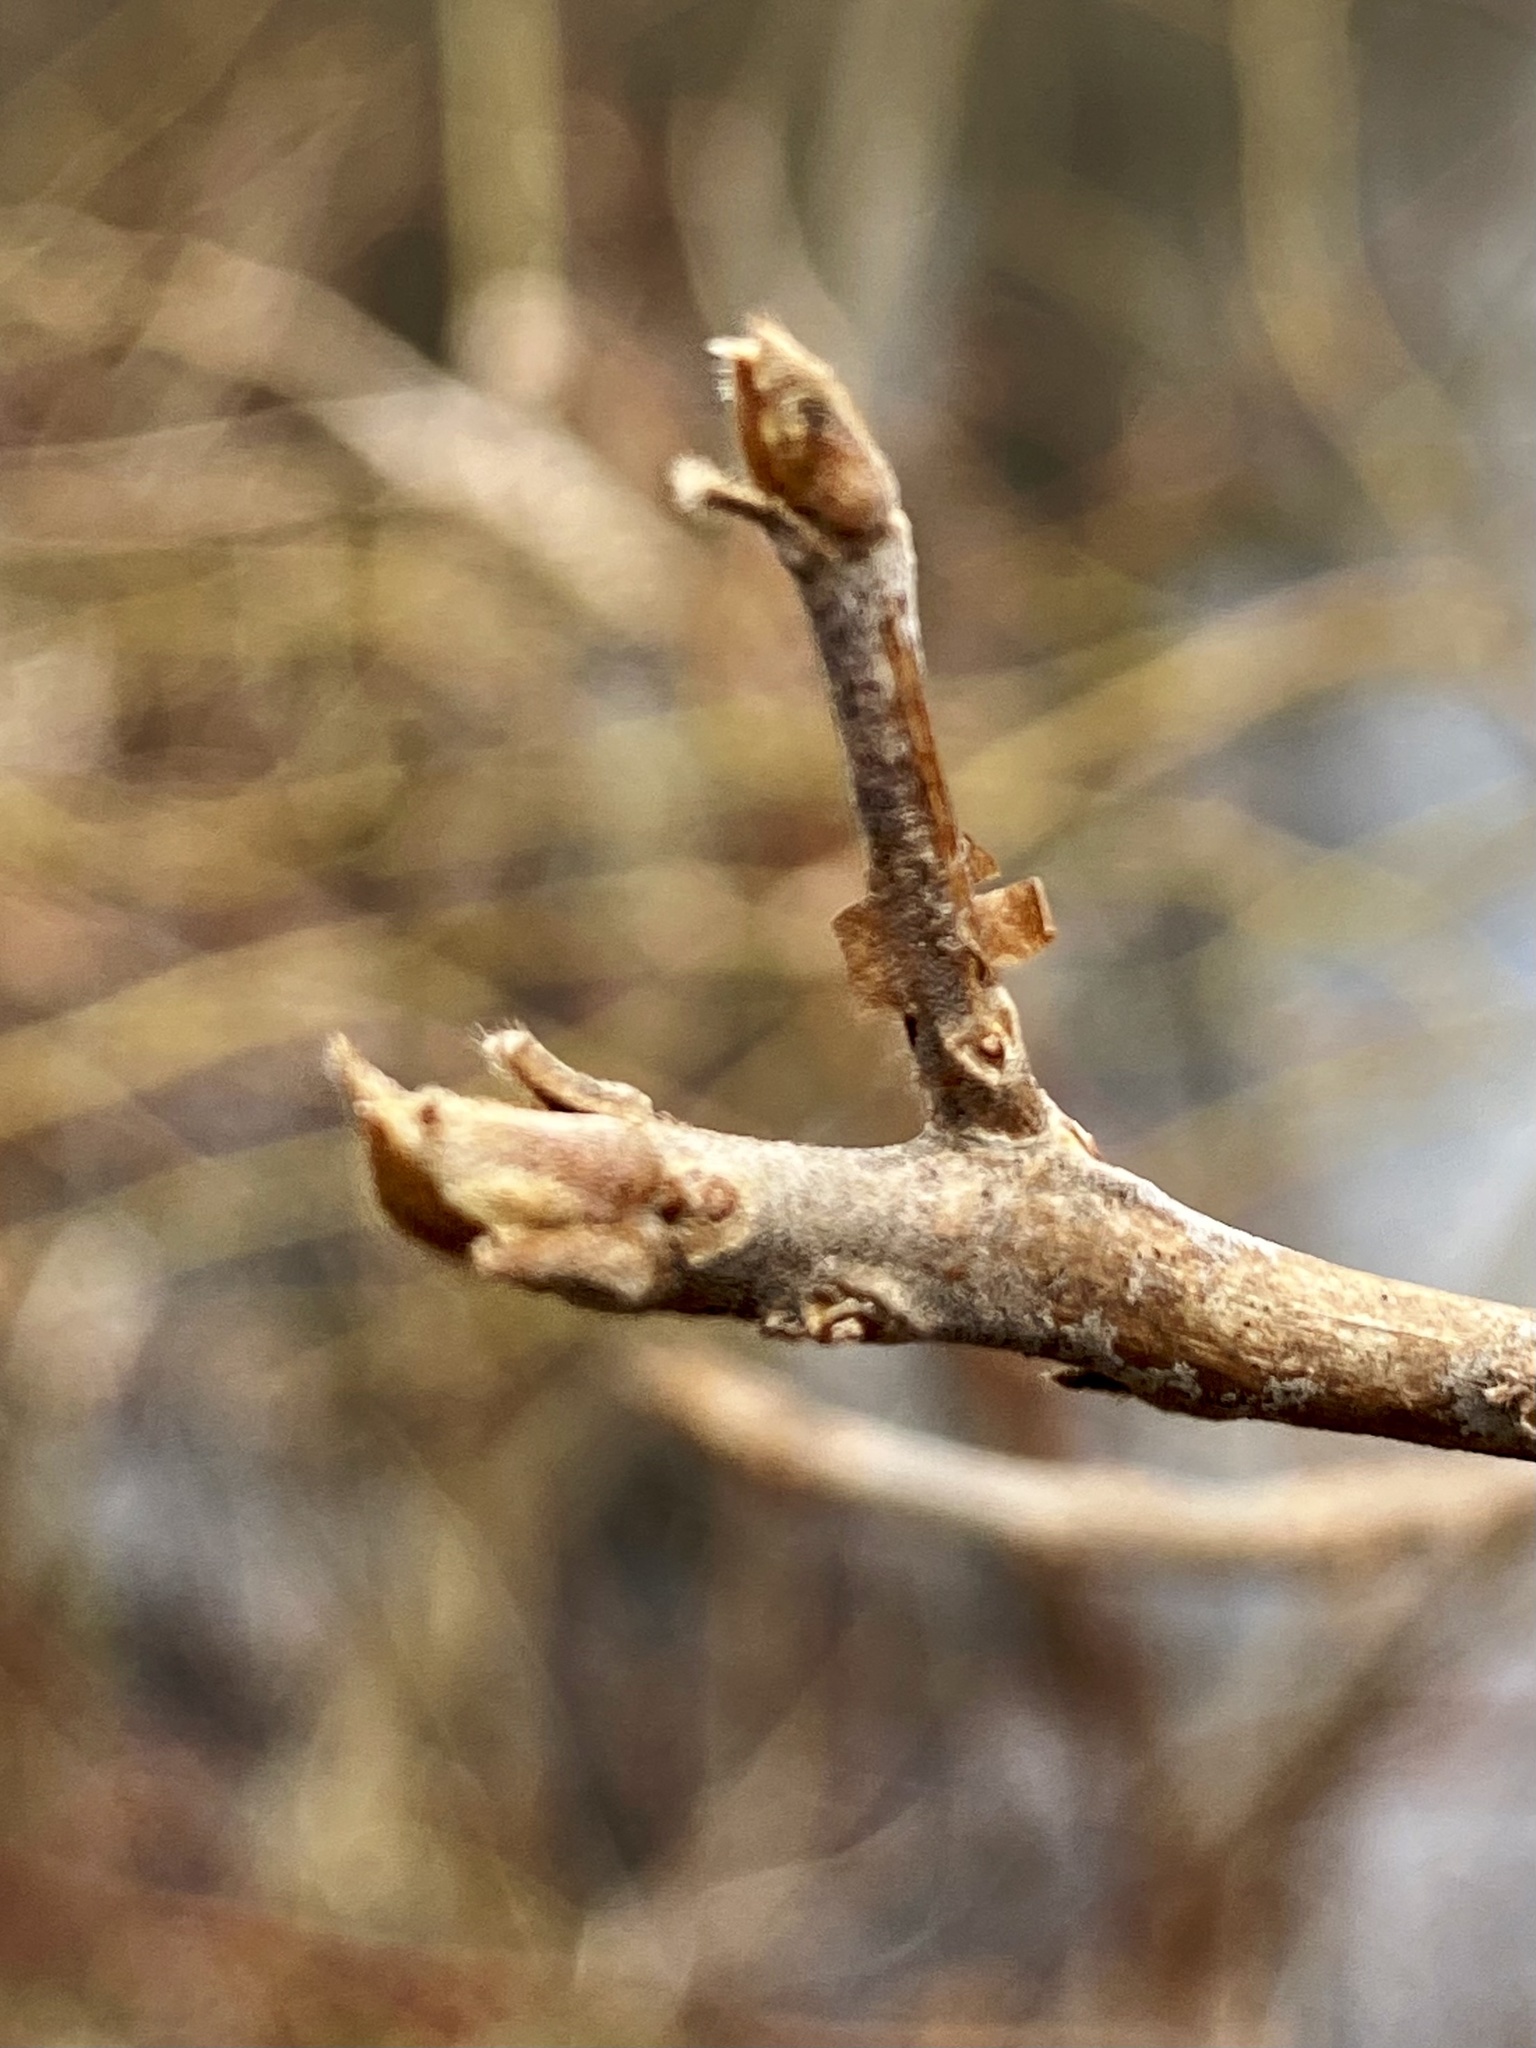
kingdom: Plantae
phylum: Tracheophyta
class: Magnoliopsida
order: Ericales
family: Clethraceae
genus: Clethra
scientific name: Clethra alnifolia
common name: Sweet pepperbush
